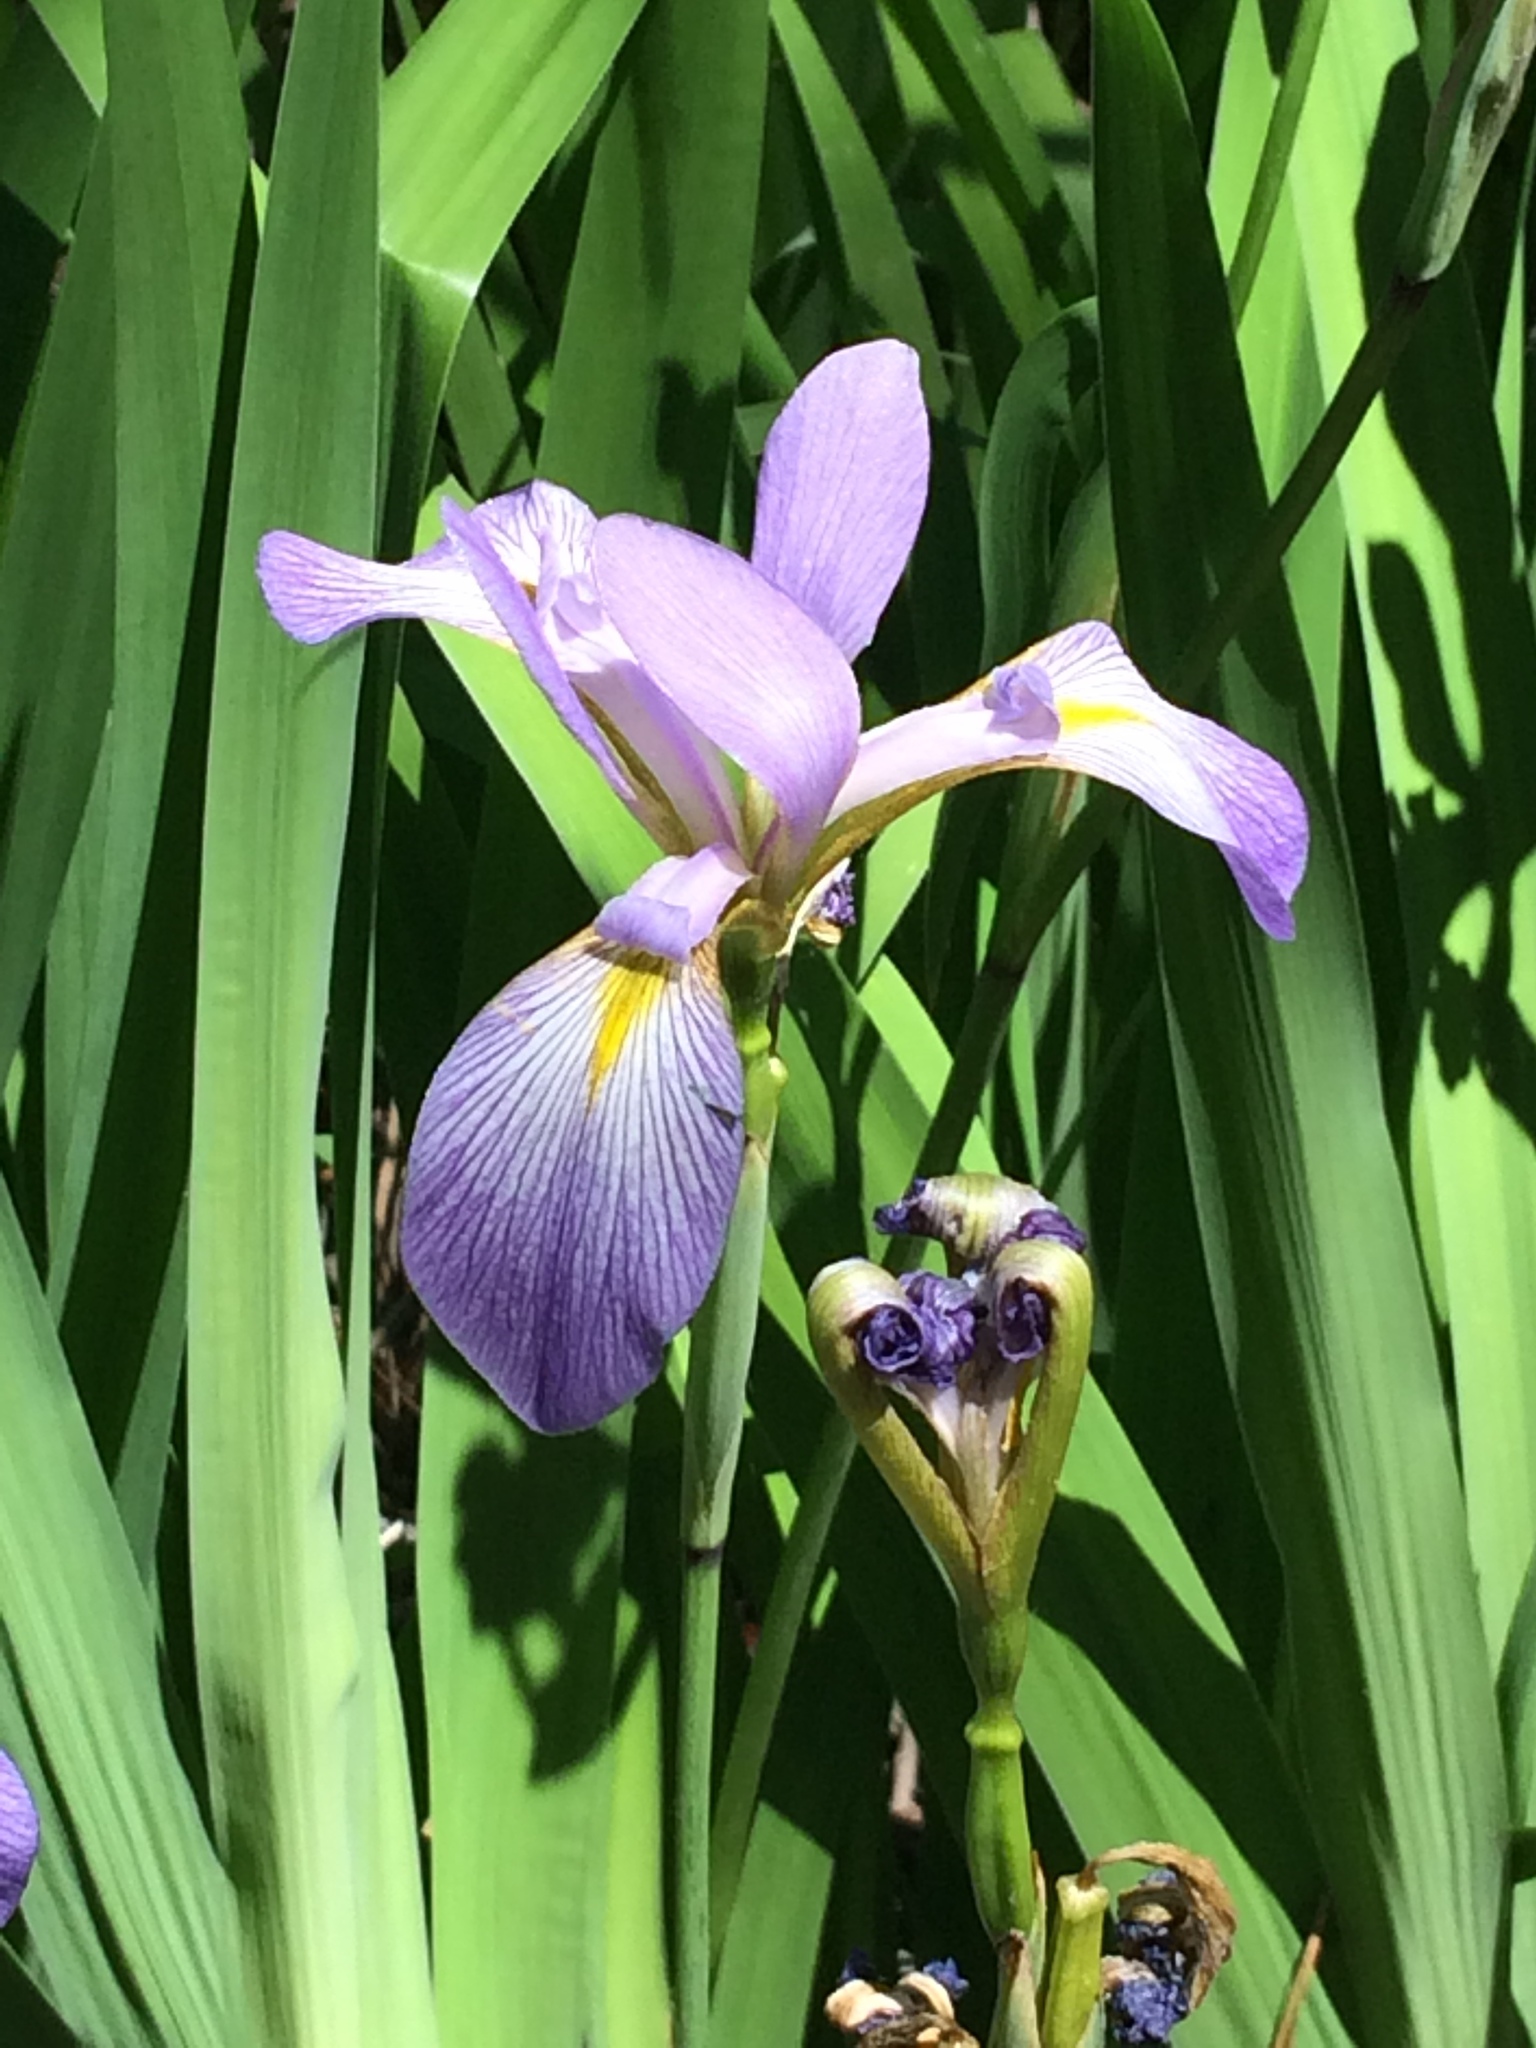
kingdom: Plantae
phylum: Tracheophyta
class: Liliopsida
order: Asparagales
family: Iridaceae
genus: Iris
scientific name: Iris virginica
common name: Southern blue flag
